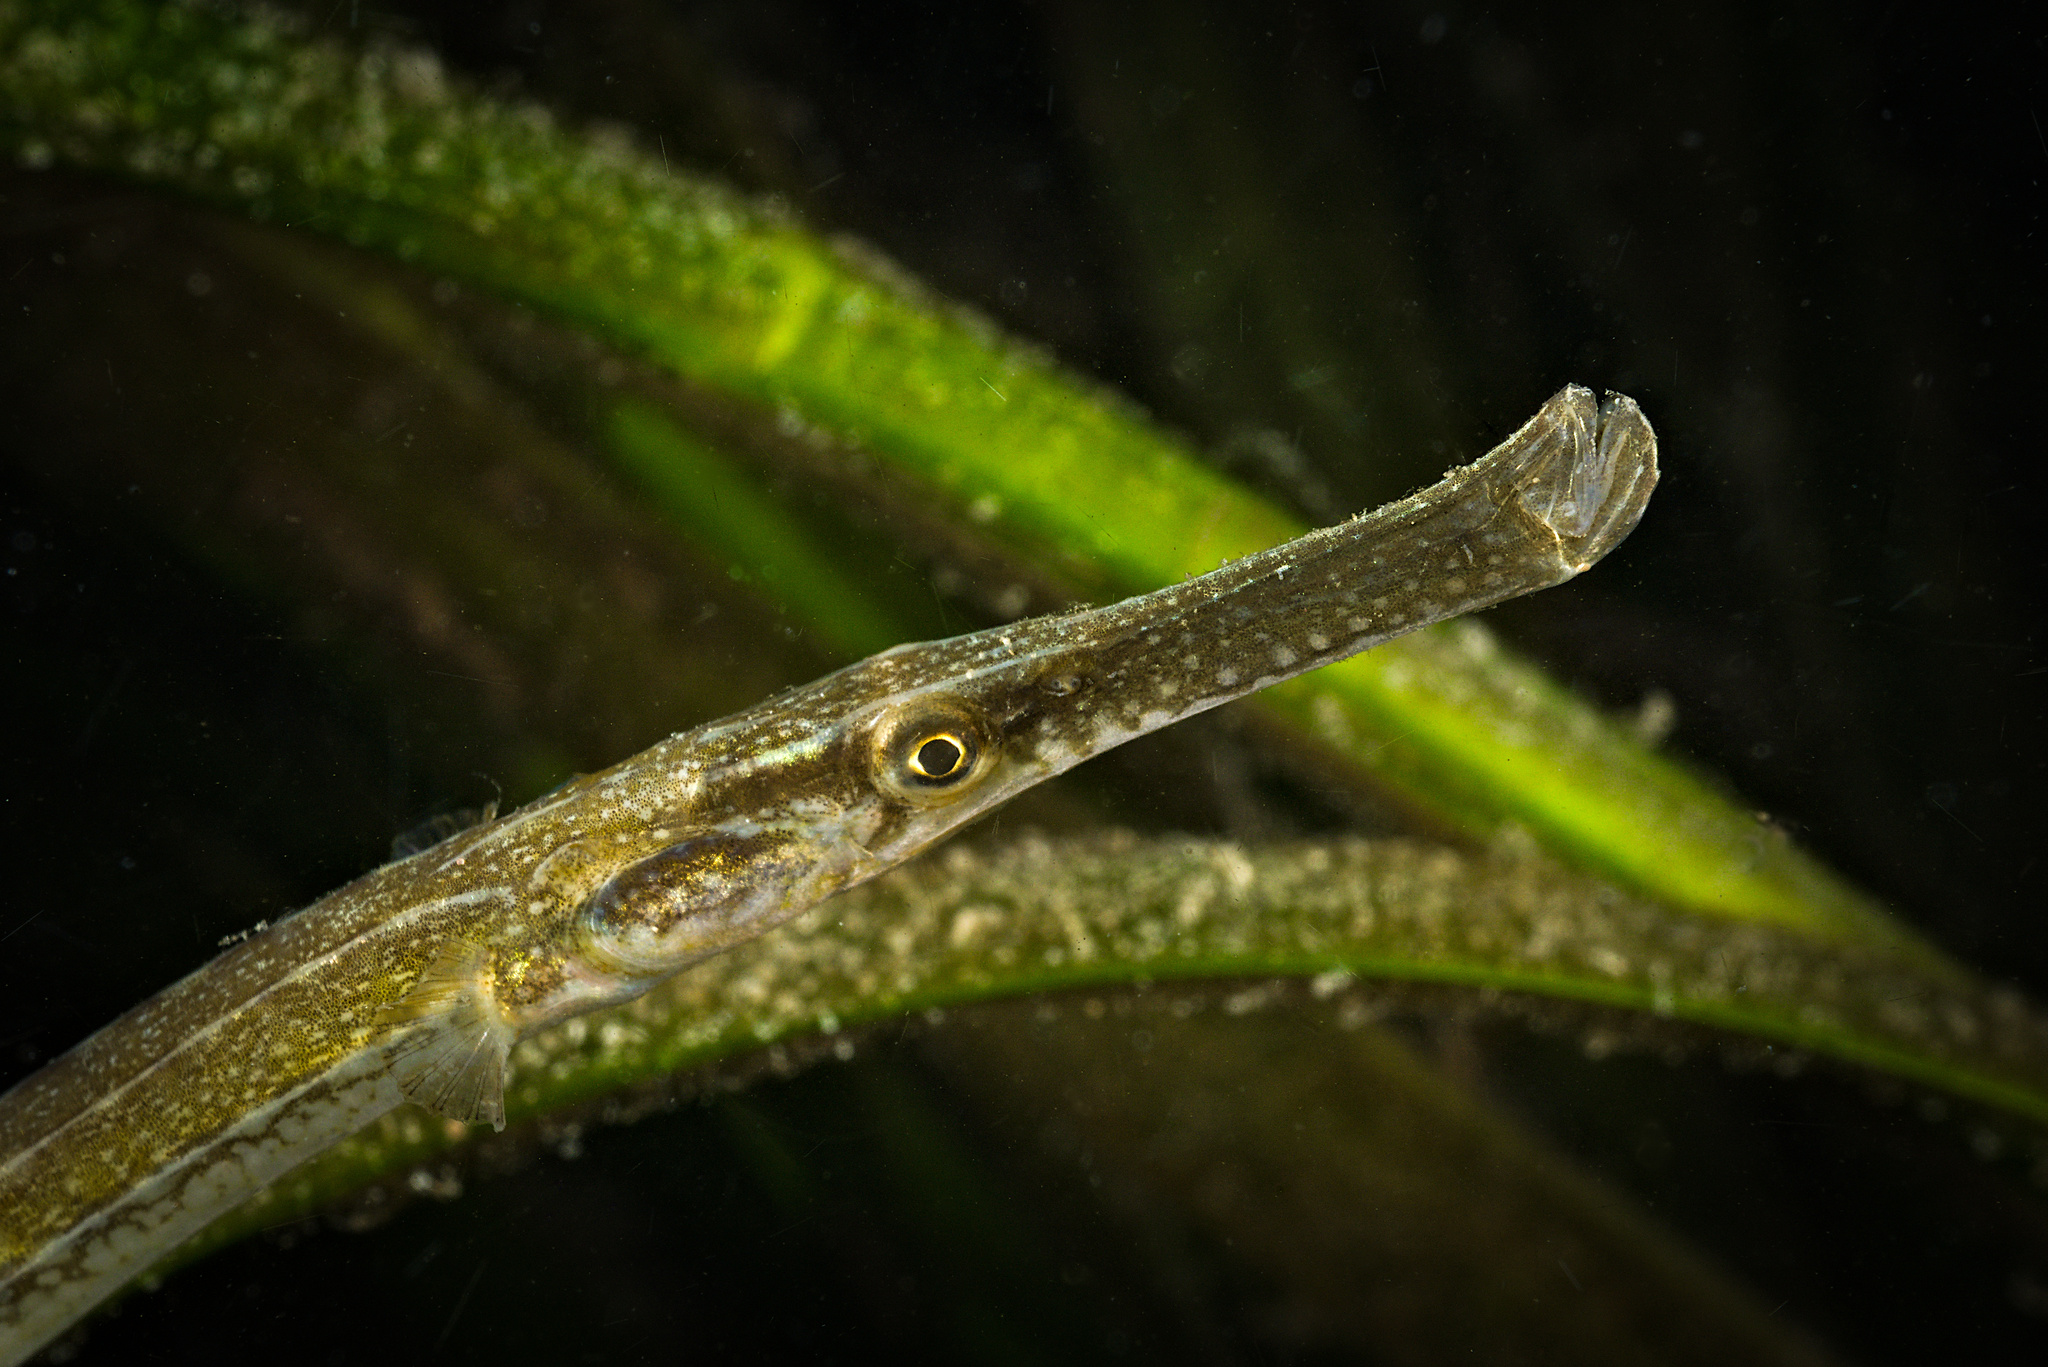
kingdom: Animalia
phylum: Chordata
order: Syngnathiformes
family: Syngnathidae
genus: Syngnathus
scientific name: Syngnathus typhle
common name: Deep-snouted pipefish
